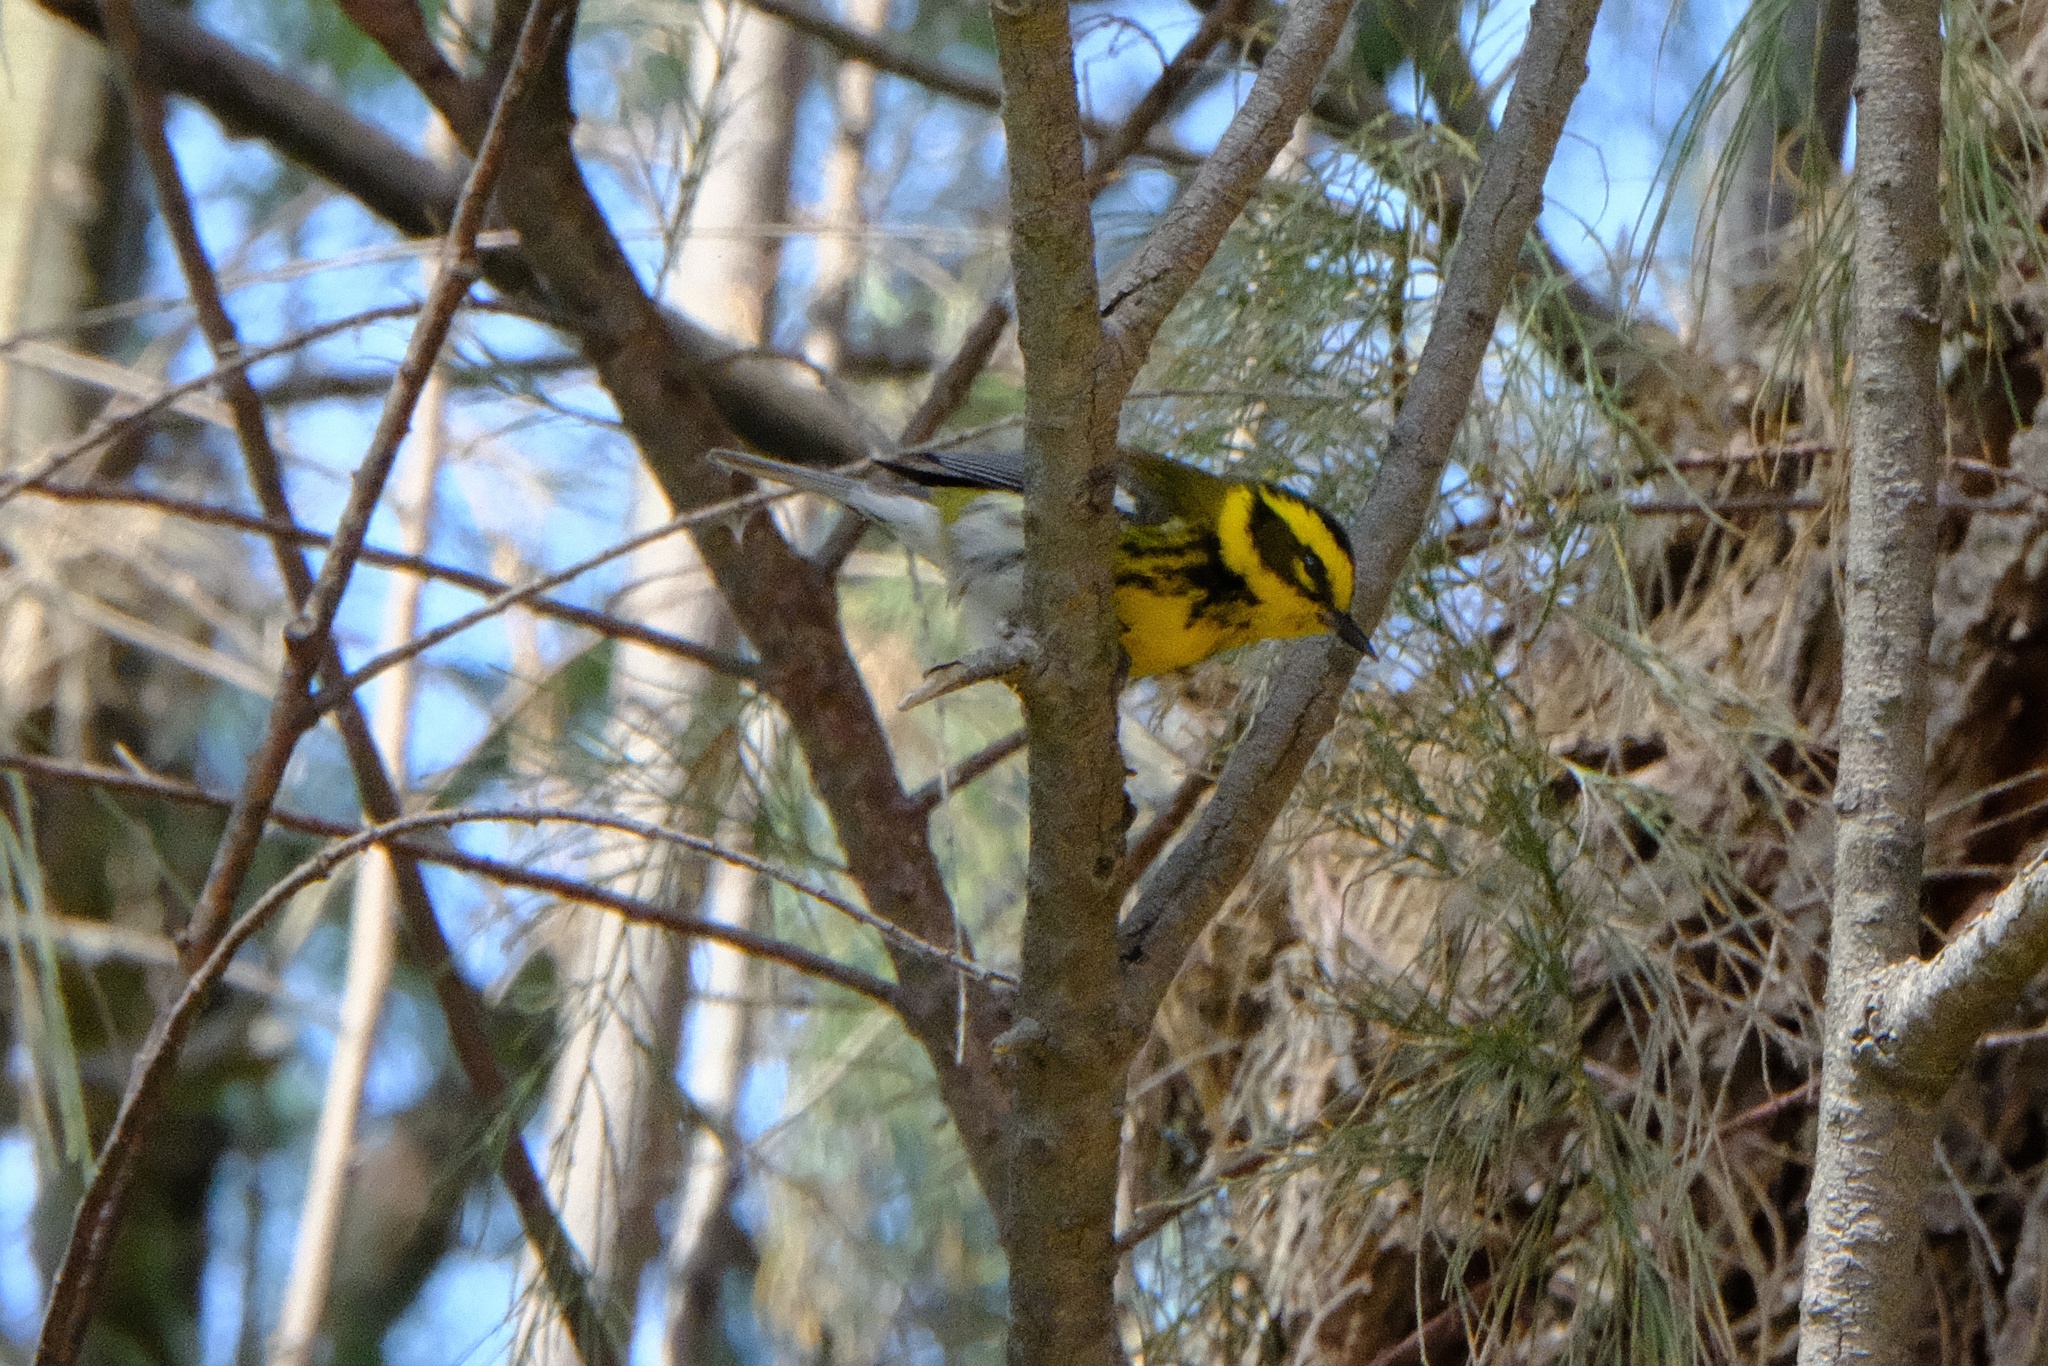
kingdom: Animalia
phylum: Chordata
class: Aves
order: Passeriformes
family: Parulidae
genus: Setophaga
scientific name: Setophaga townsendi
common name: Townsend's warbler
